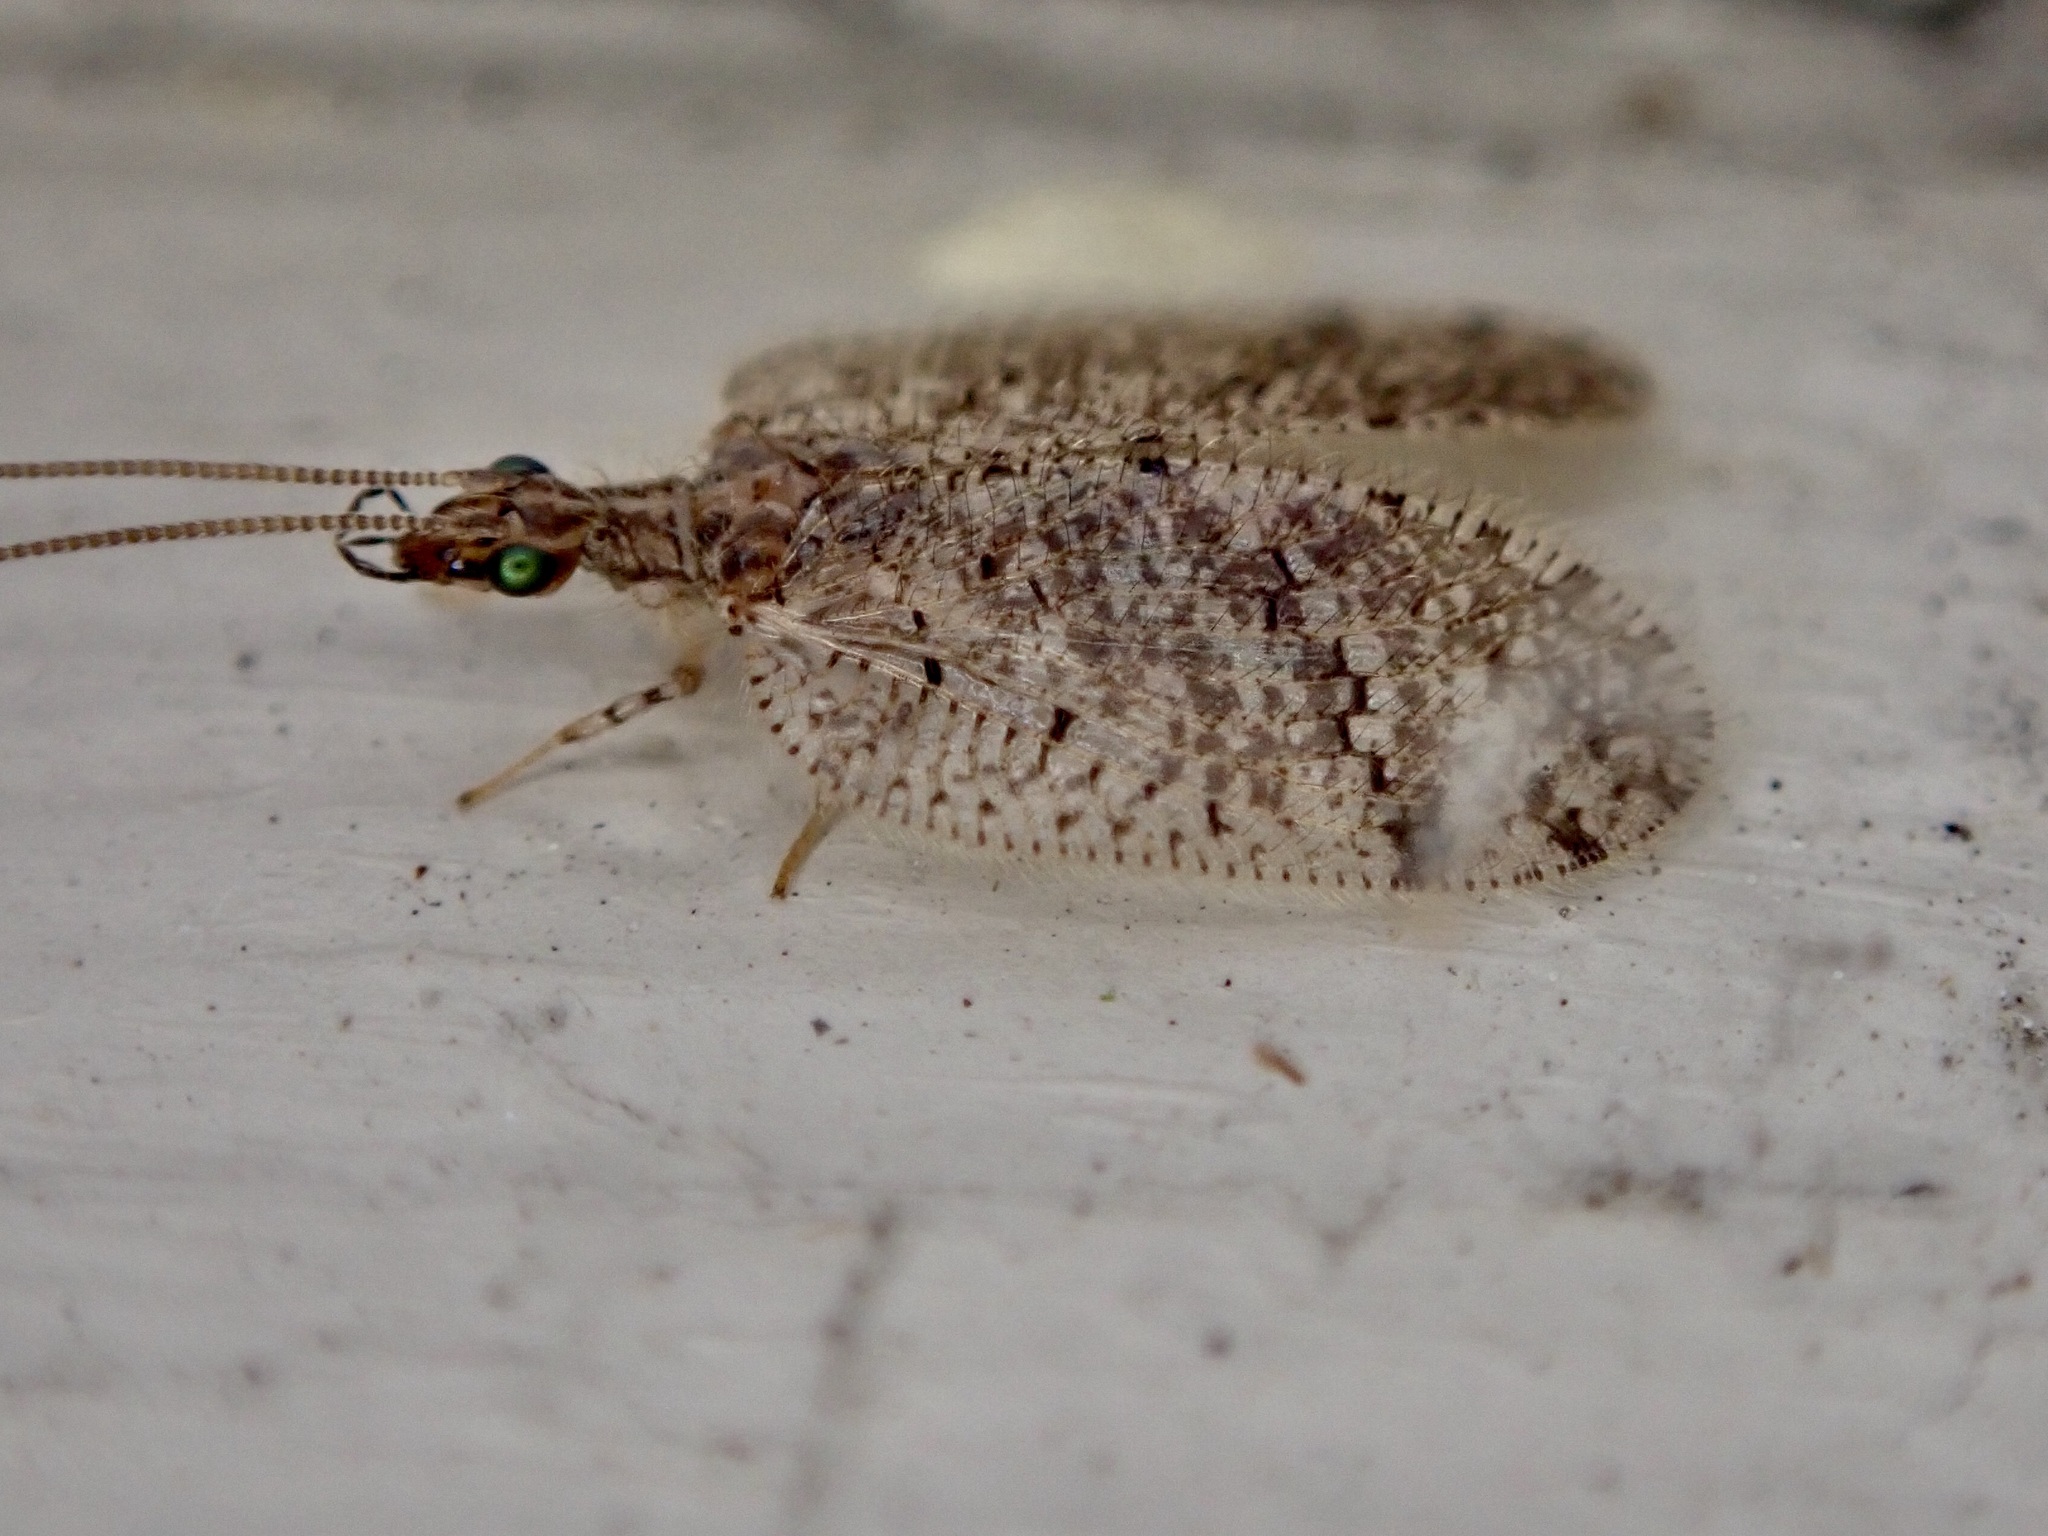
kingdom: Animalia
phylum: Arthropoda
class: Insecta
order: Neuroptera
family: Hemerobiidae
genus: Psectra
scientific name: Psectra nakaharai
